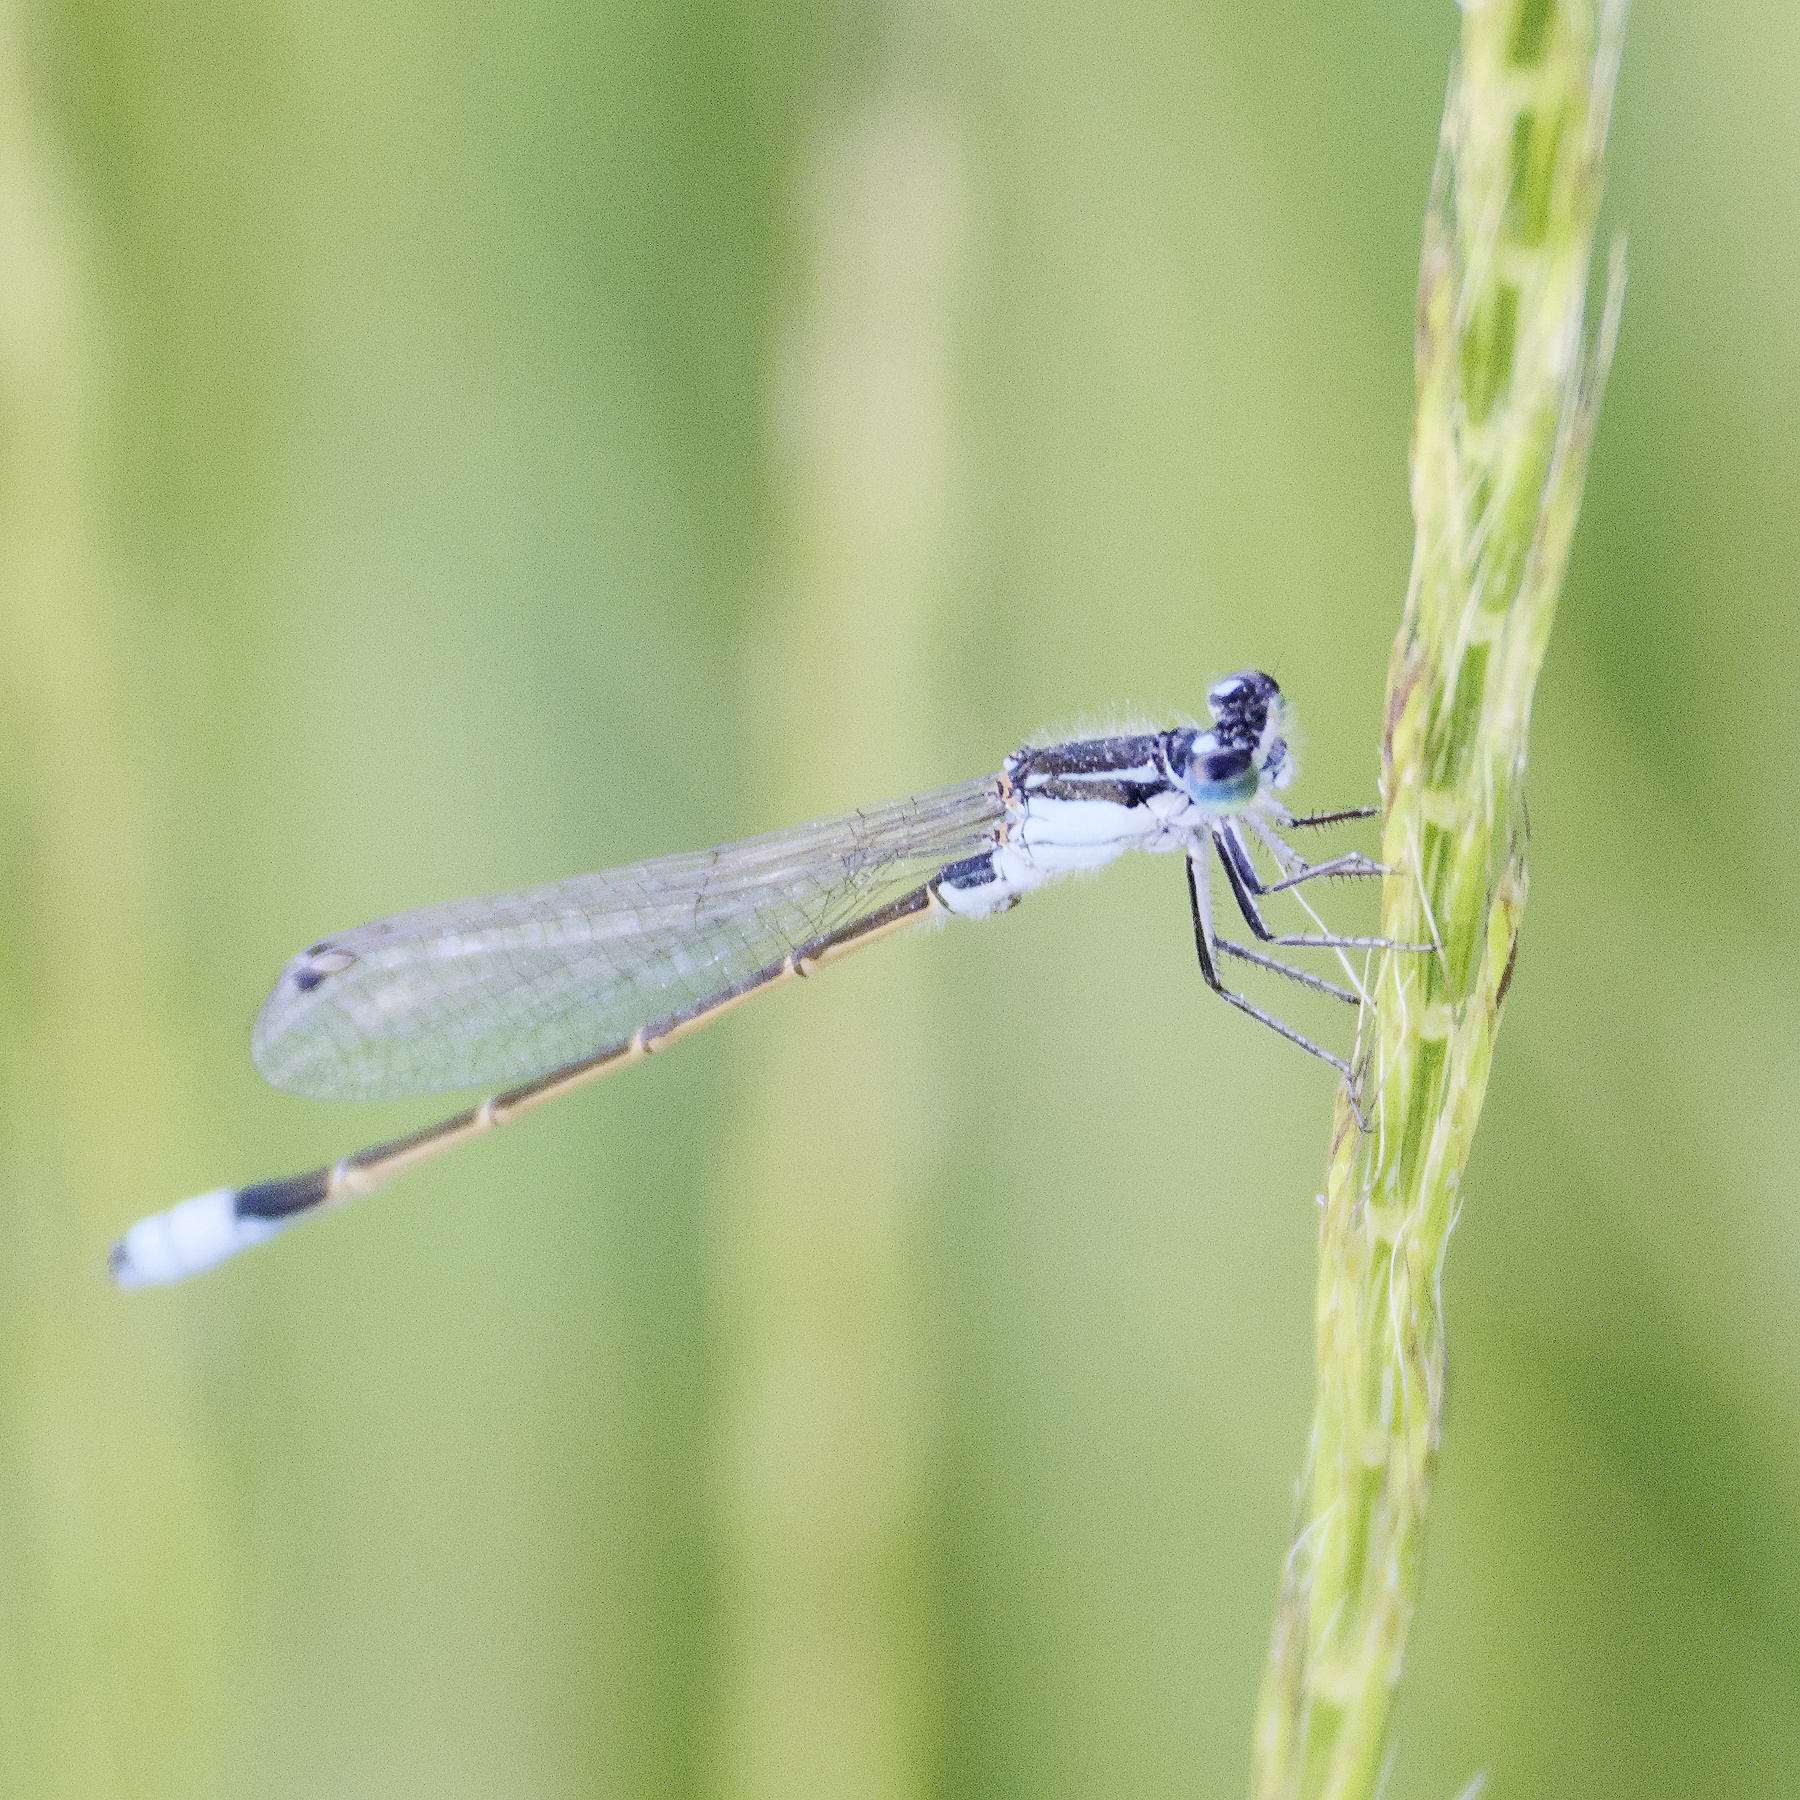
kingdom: Animalia
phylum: Arthropoda
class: Insecta
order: Odonata
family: Coenagrionidae
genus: Ischnura
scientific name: Ischnura heterosticta
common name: Common bluetail
